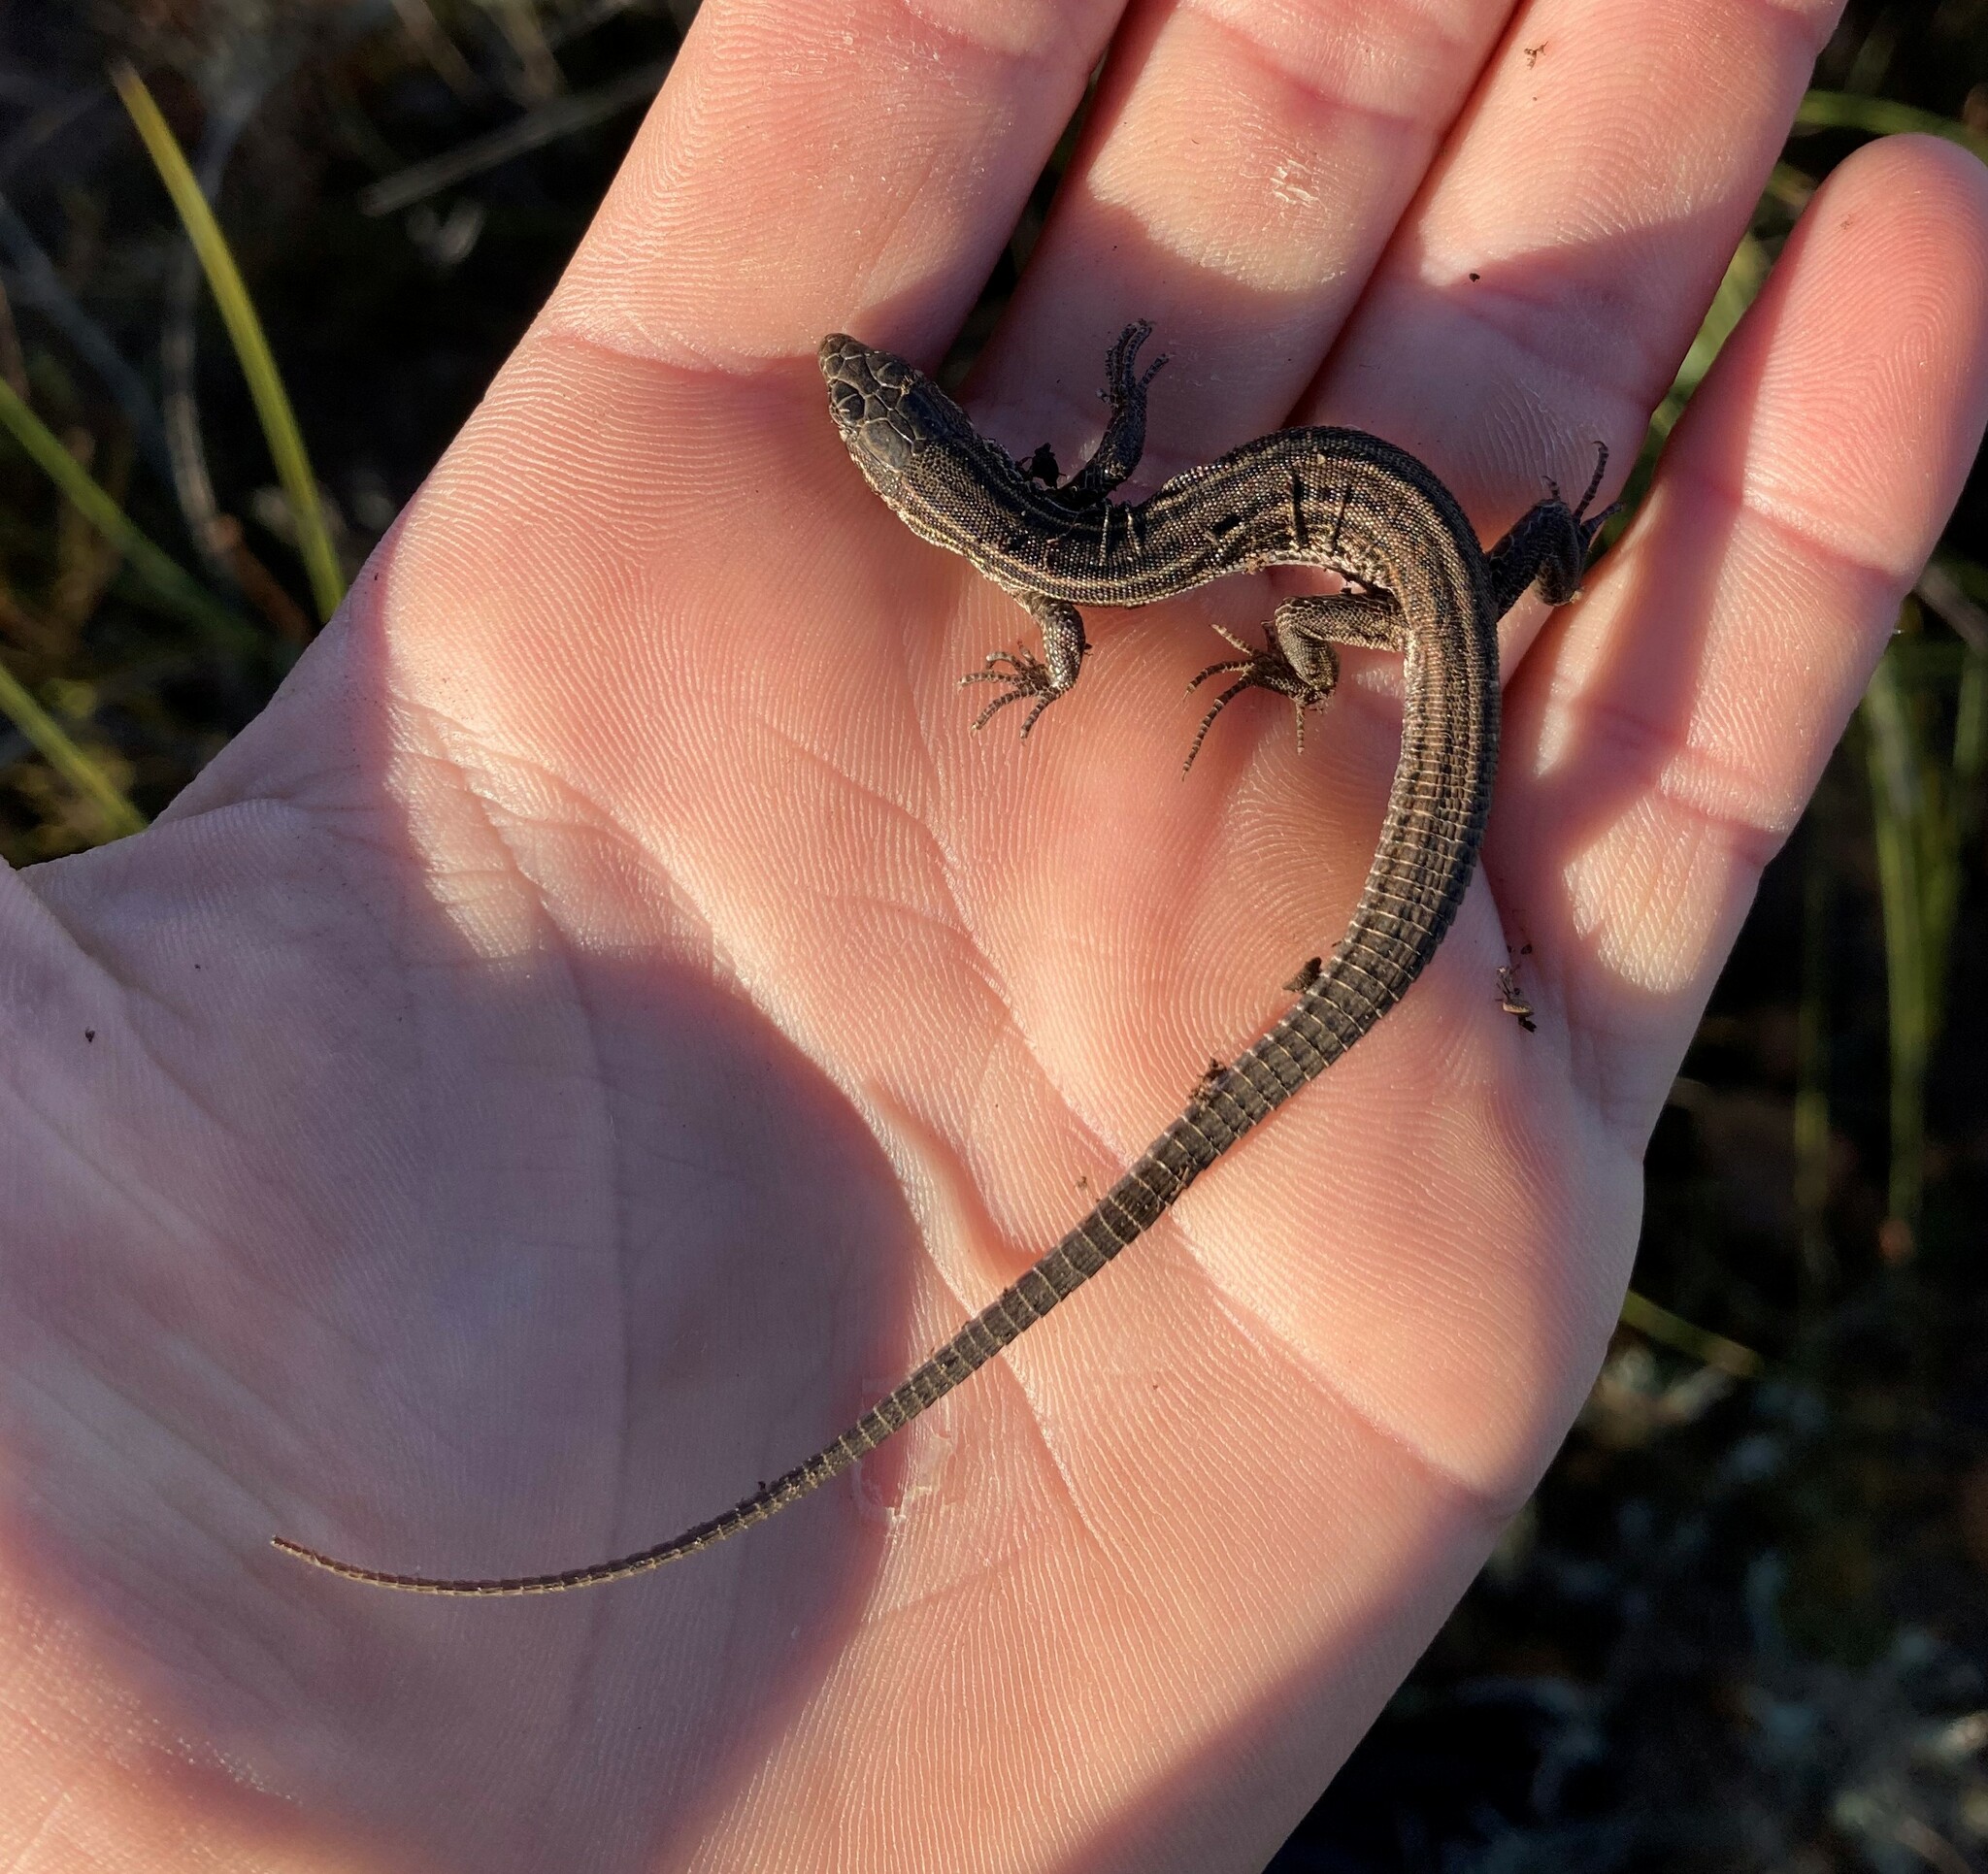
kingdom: Animalia
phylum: Chordata
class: Squamata
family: Lacertidae
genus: Nucras
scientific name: Nucras tessellata
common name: Western sandveld lizard
